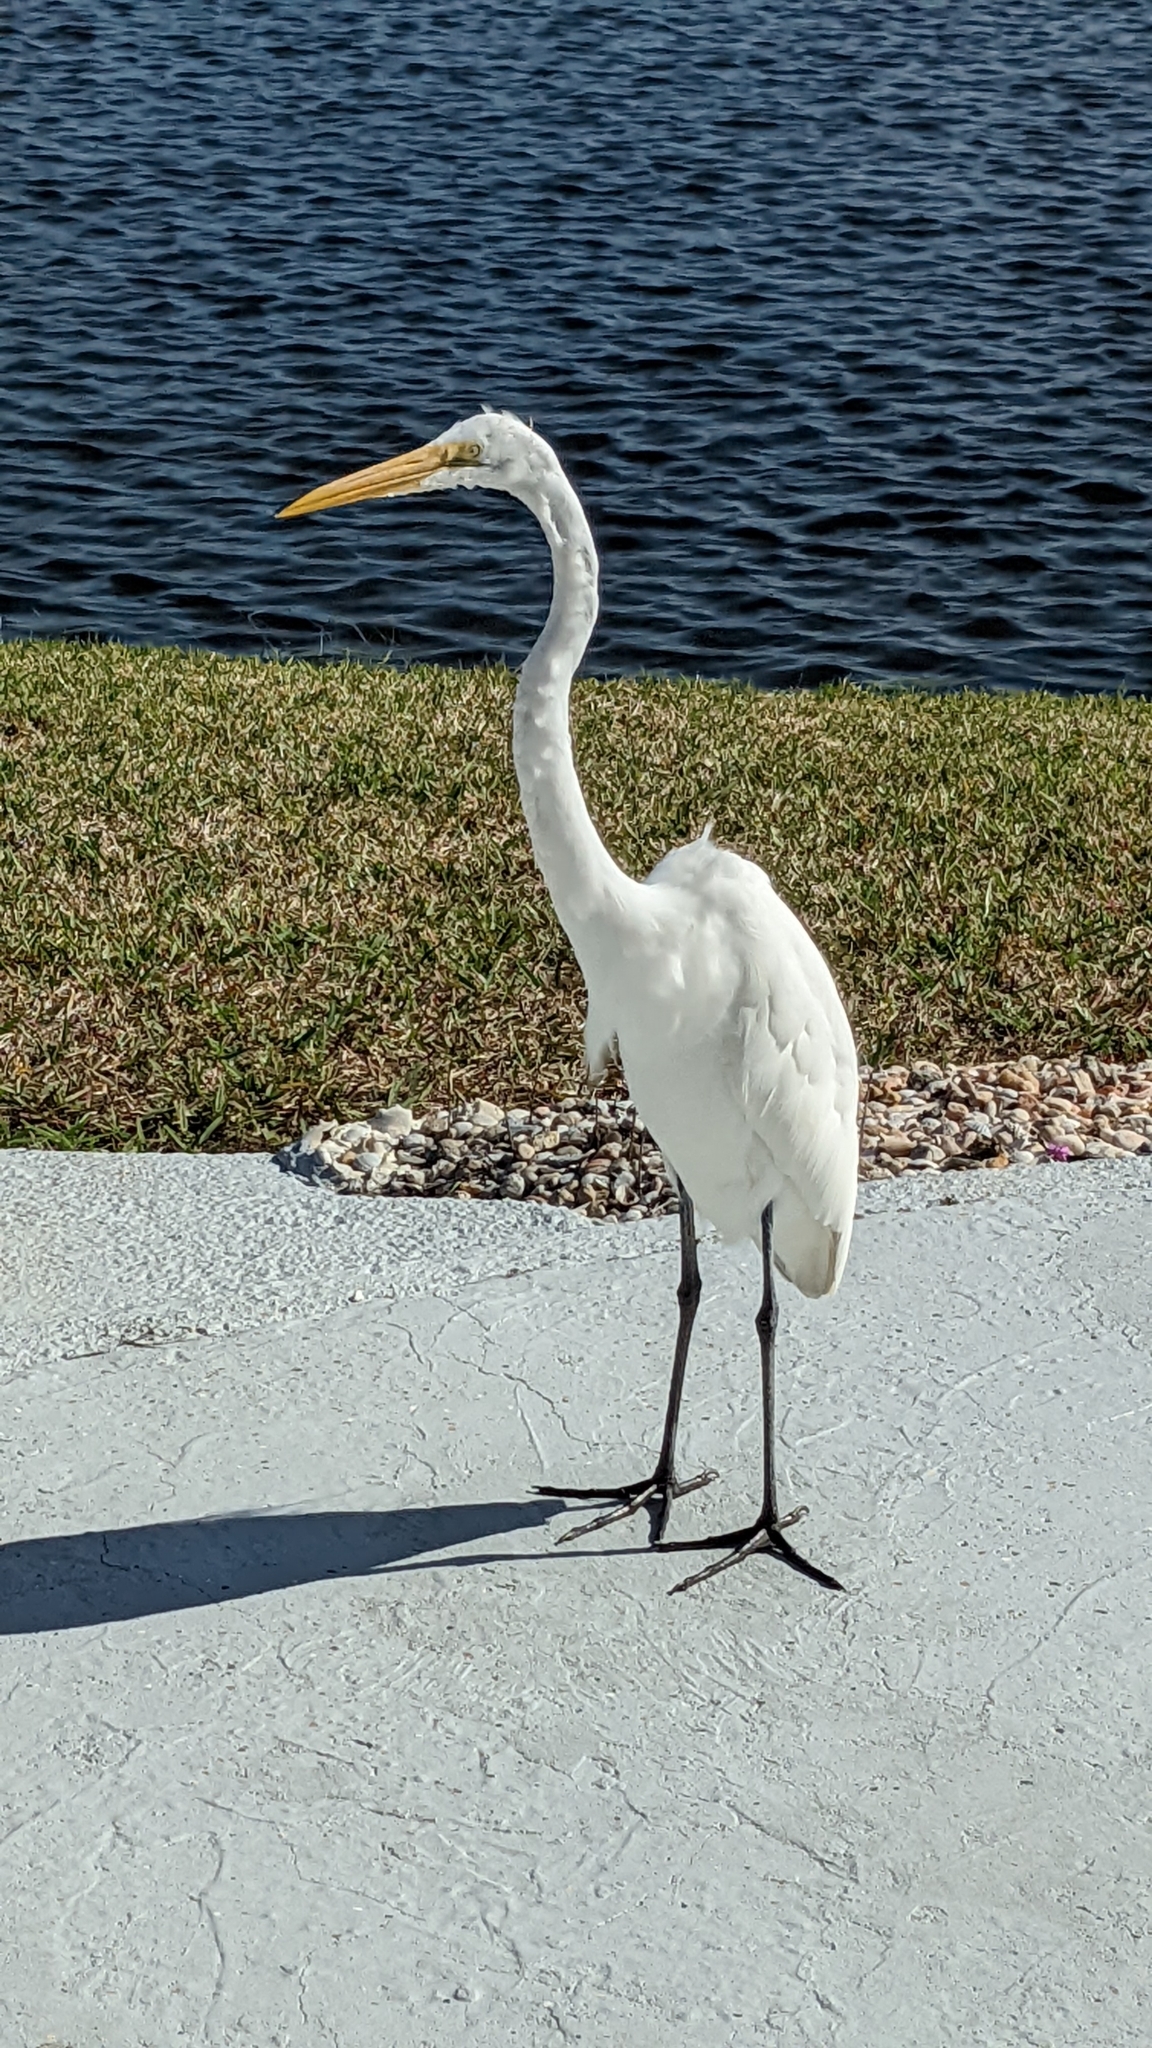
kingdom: Animalia
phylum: Chordata
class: Aves
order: Pelecaniformes
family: Ardeidae
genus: Ardea
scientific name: Ardea alba
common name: Great egret
